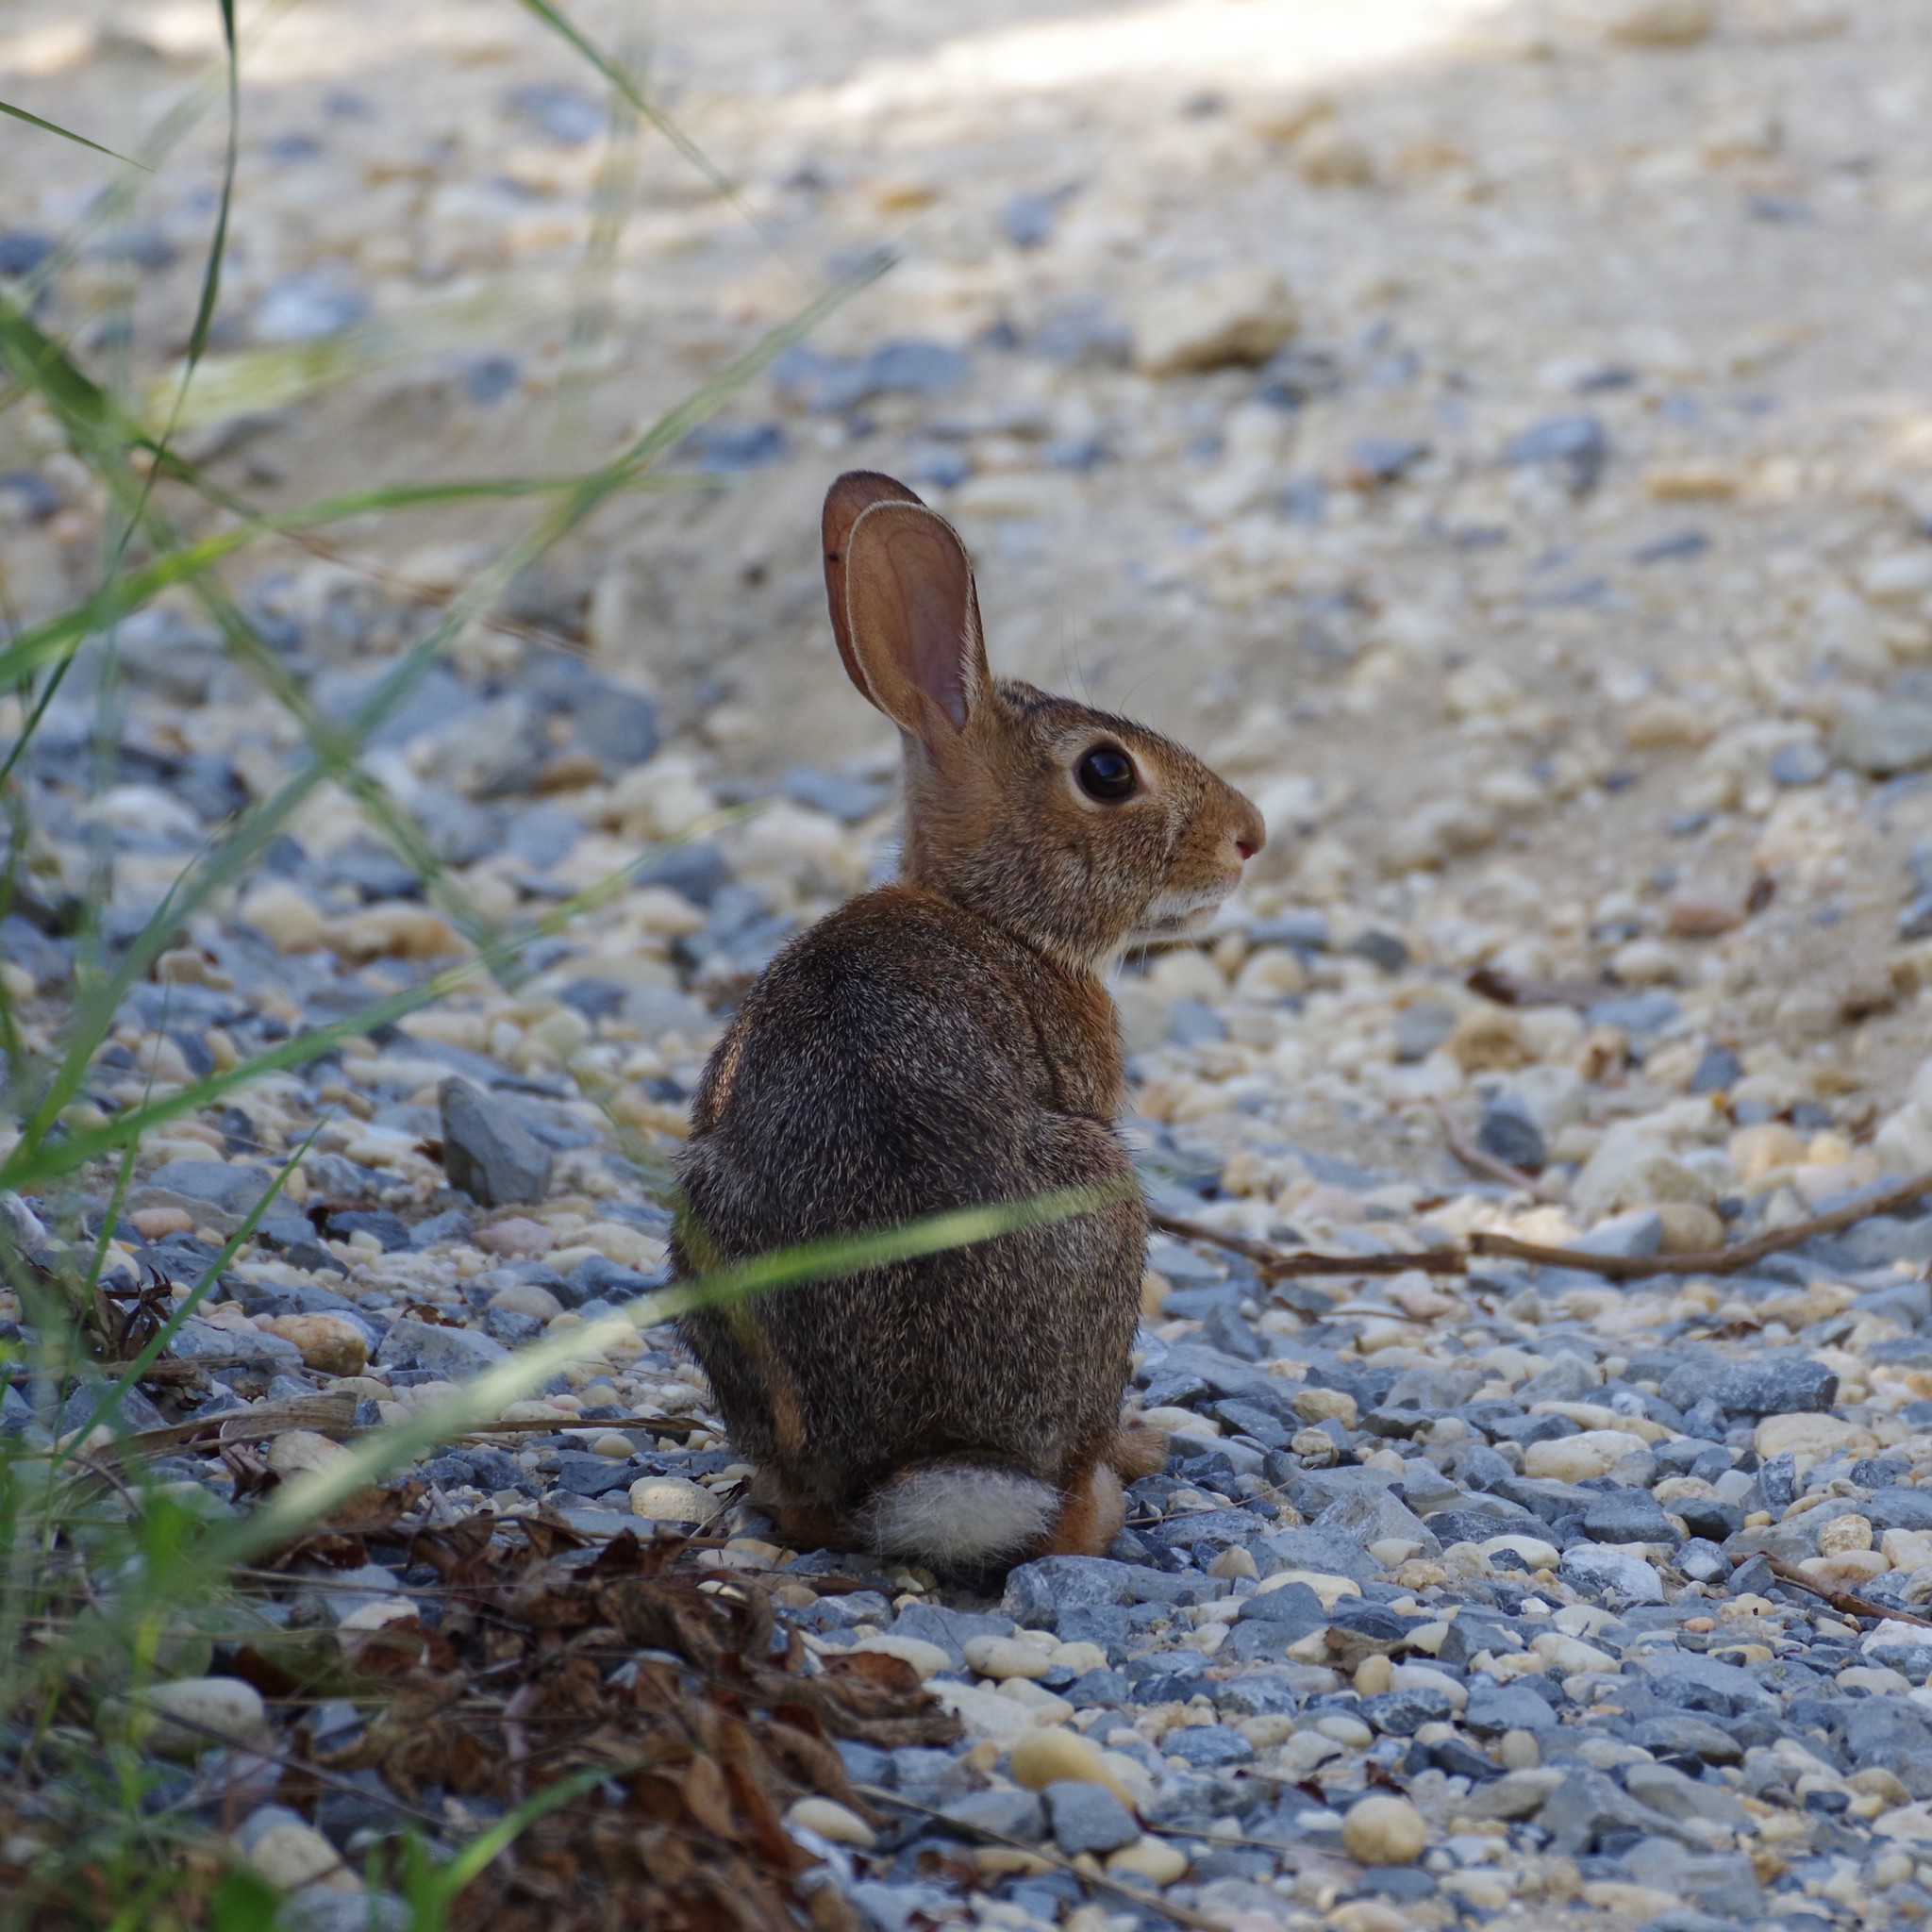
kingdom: Animalia
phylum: Chordata
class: Mammalia
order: Lagomorpha
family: Leporidae
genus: Sylvilagus
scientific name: Sylvilagus floridanus
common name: Eastern cottontail
